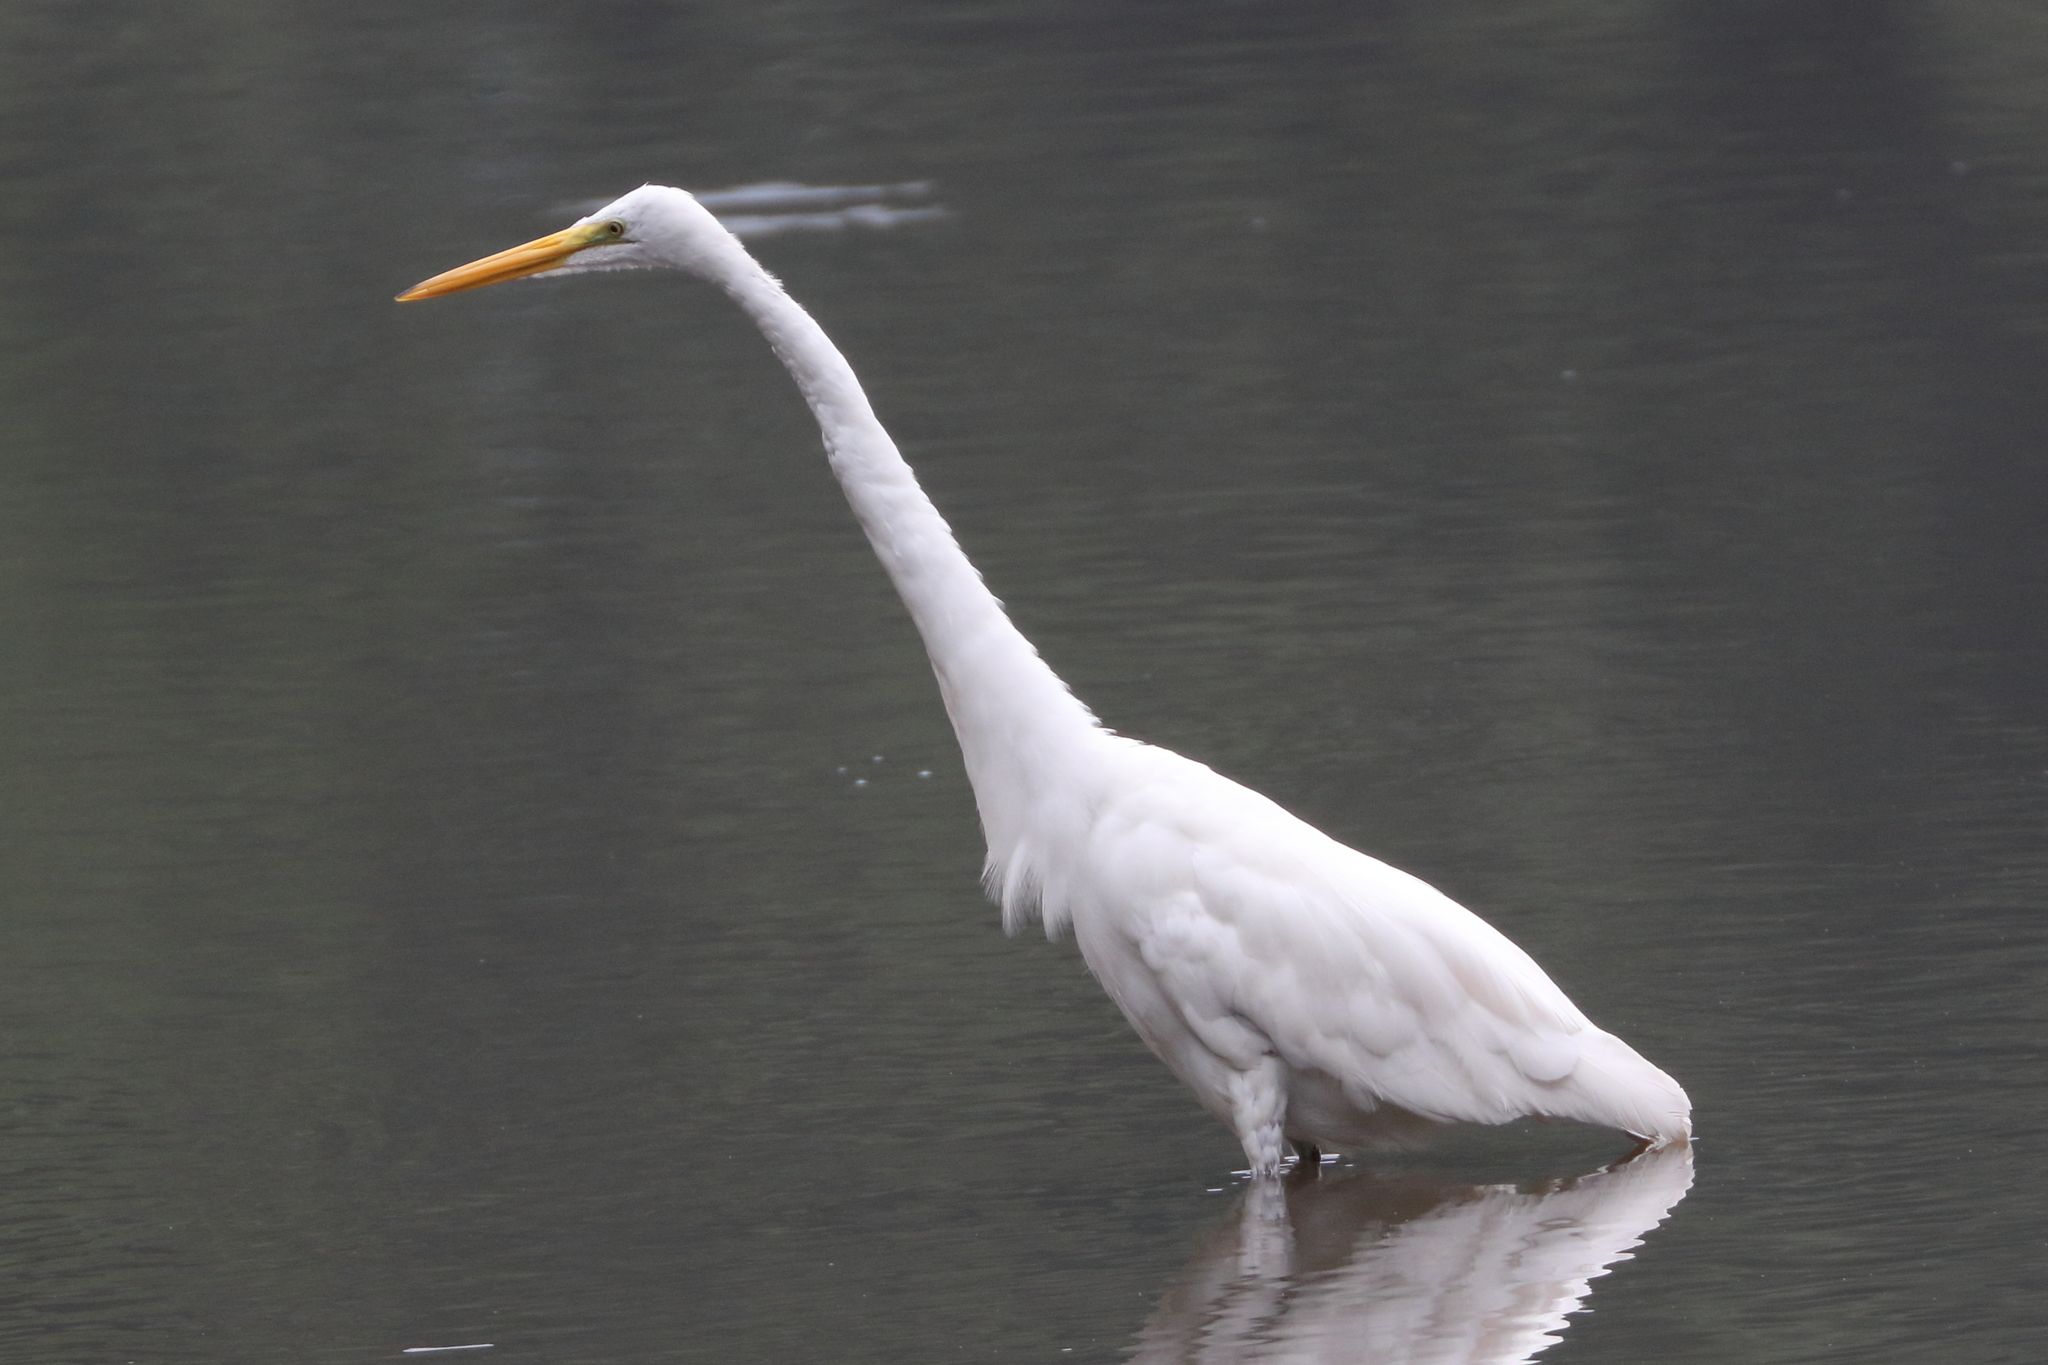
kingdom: Animalia
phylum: Chordata
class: Aves
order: Pelecaniformes
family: Ardeidae
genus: Ardea
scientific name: Ardea alba
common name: Great egret
